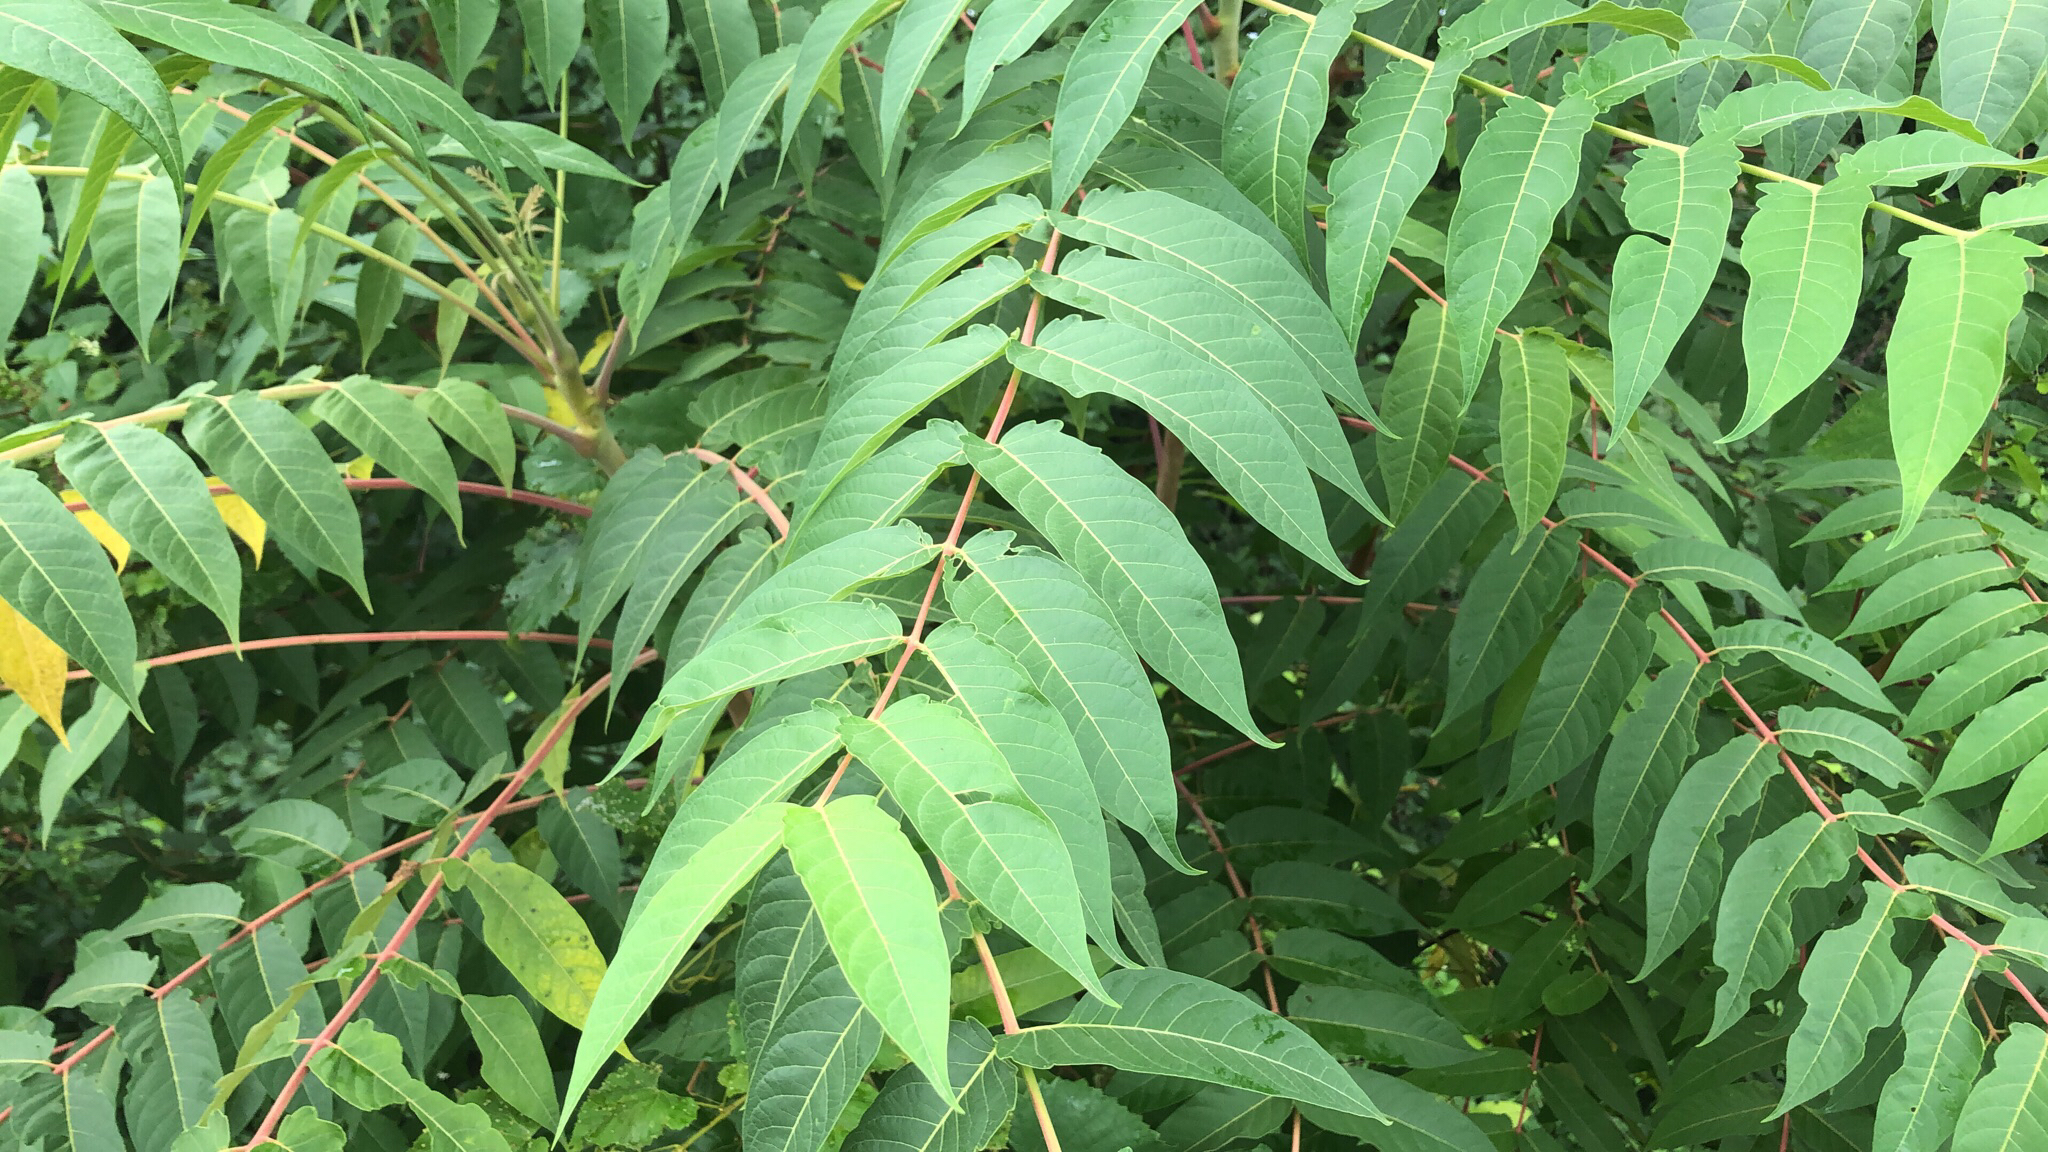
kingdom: Plantae
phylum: Tracheophyta
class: Magnoliopsida
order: Sapindales
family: Simaroubaceae
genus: Ailanthus
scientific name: Ailanthus altissima
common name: Tree-of-heaven
